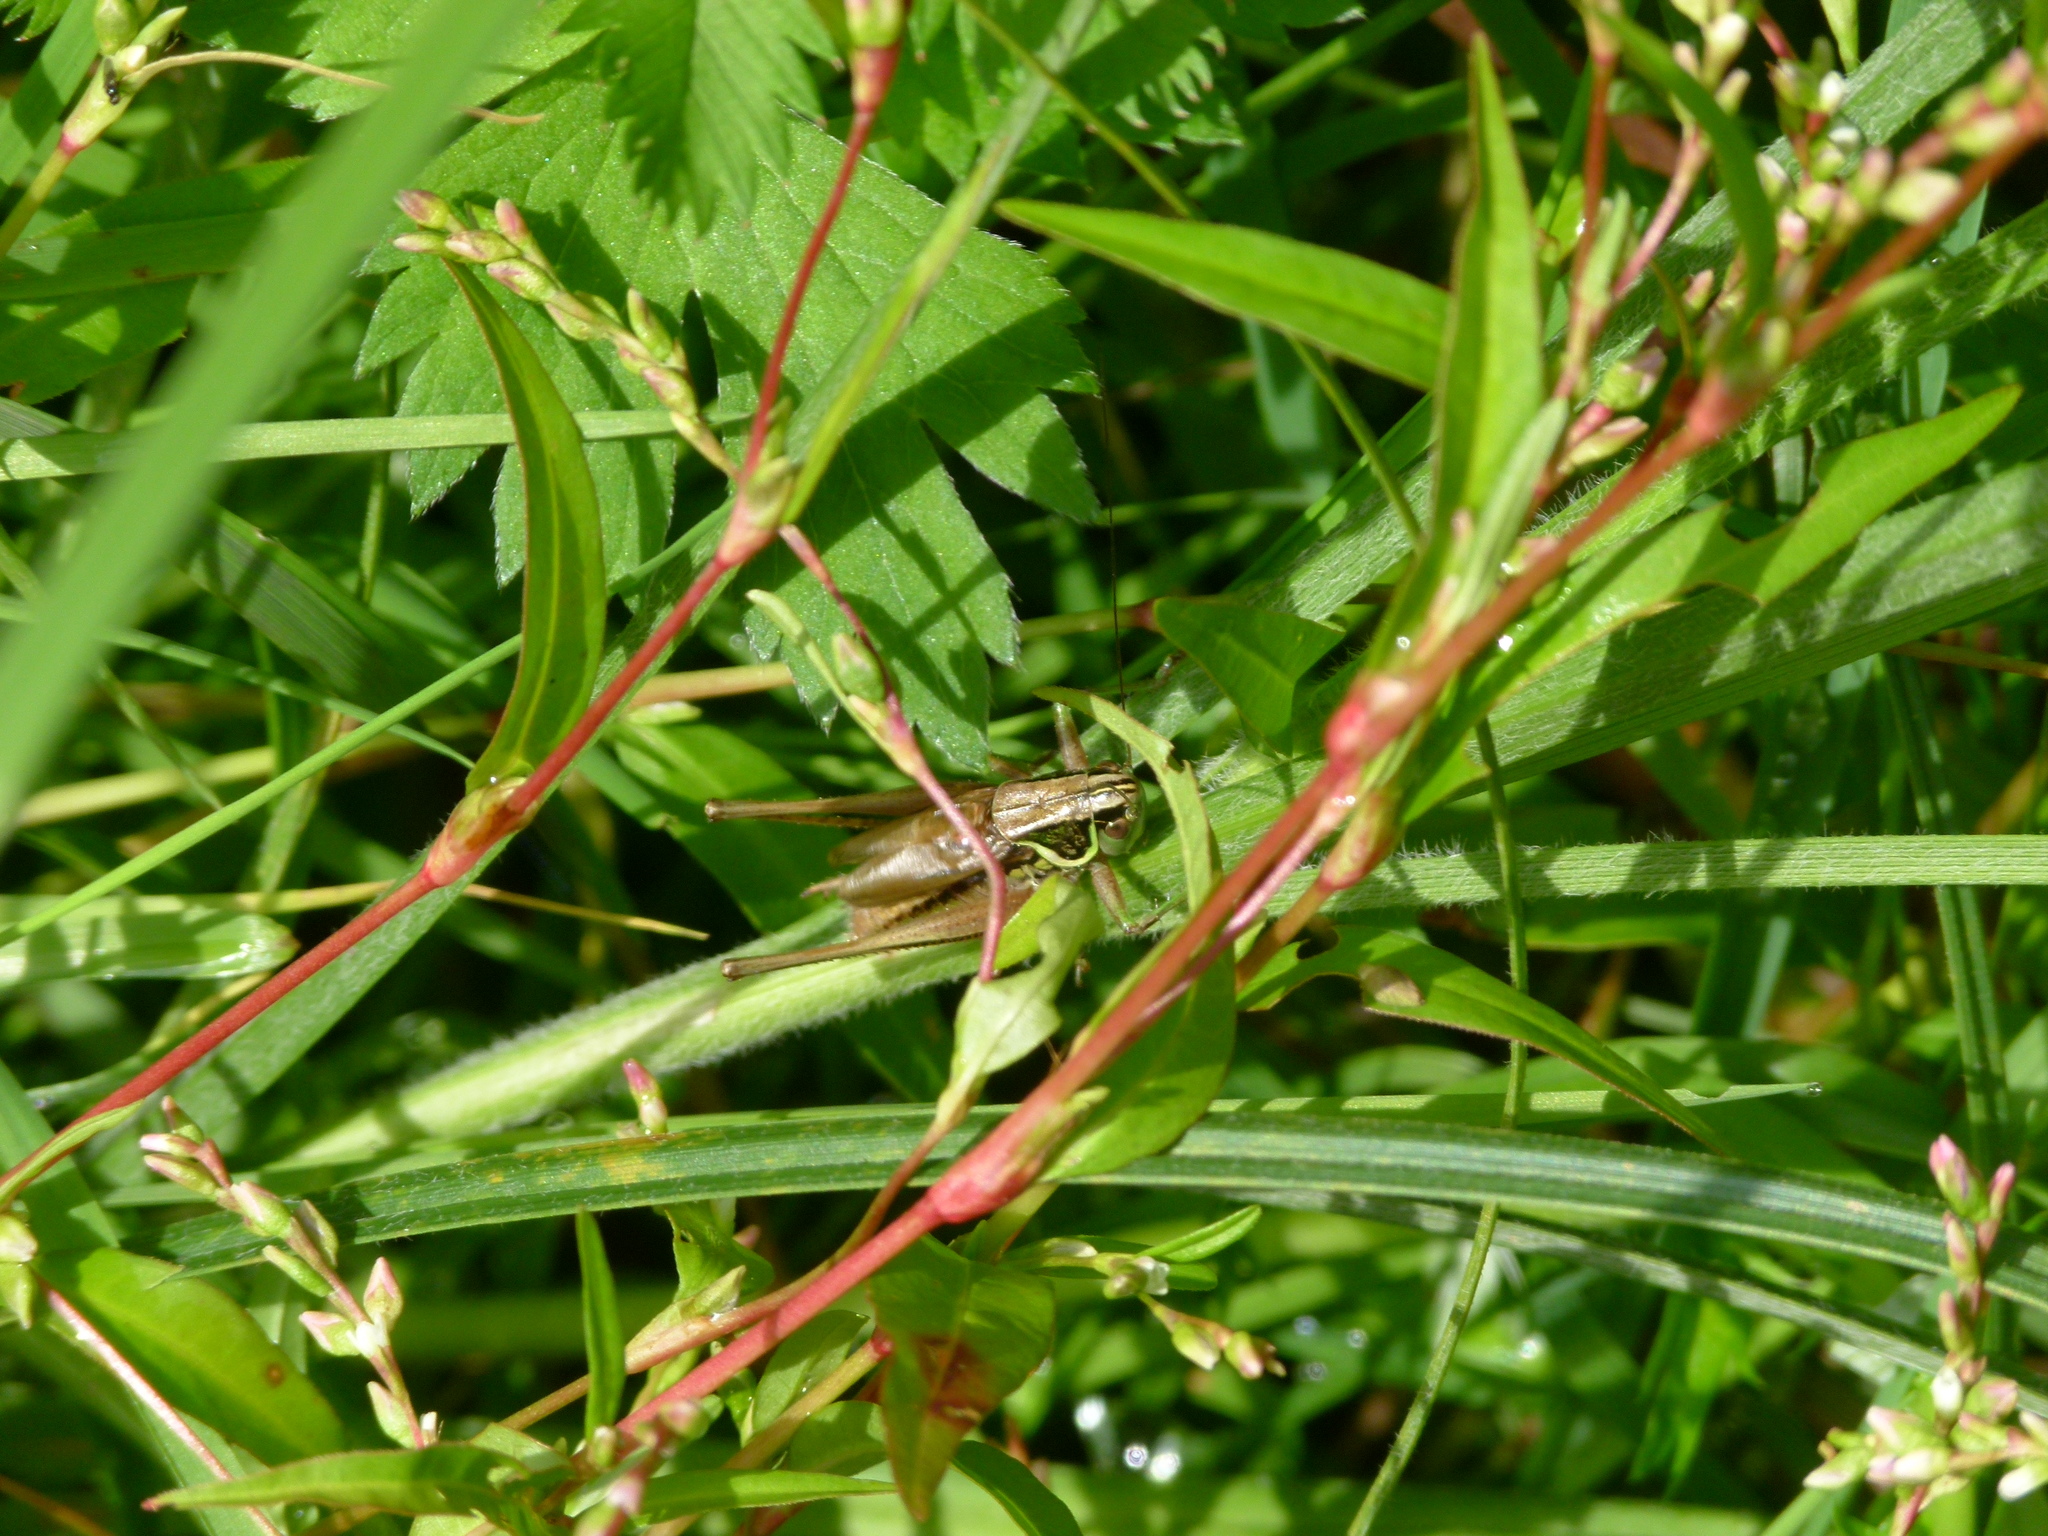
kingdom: Animalia
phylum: Arthropoda
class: Insecta
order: Orthoptera
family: Tettigoniidae
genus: Roeseliana
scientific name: Roeseliana roeselii
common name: Roesel's bush cricket
